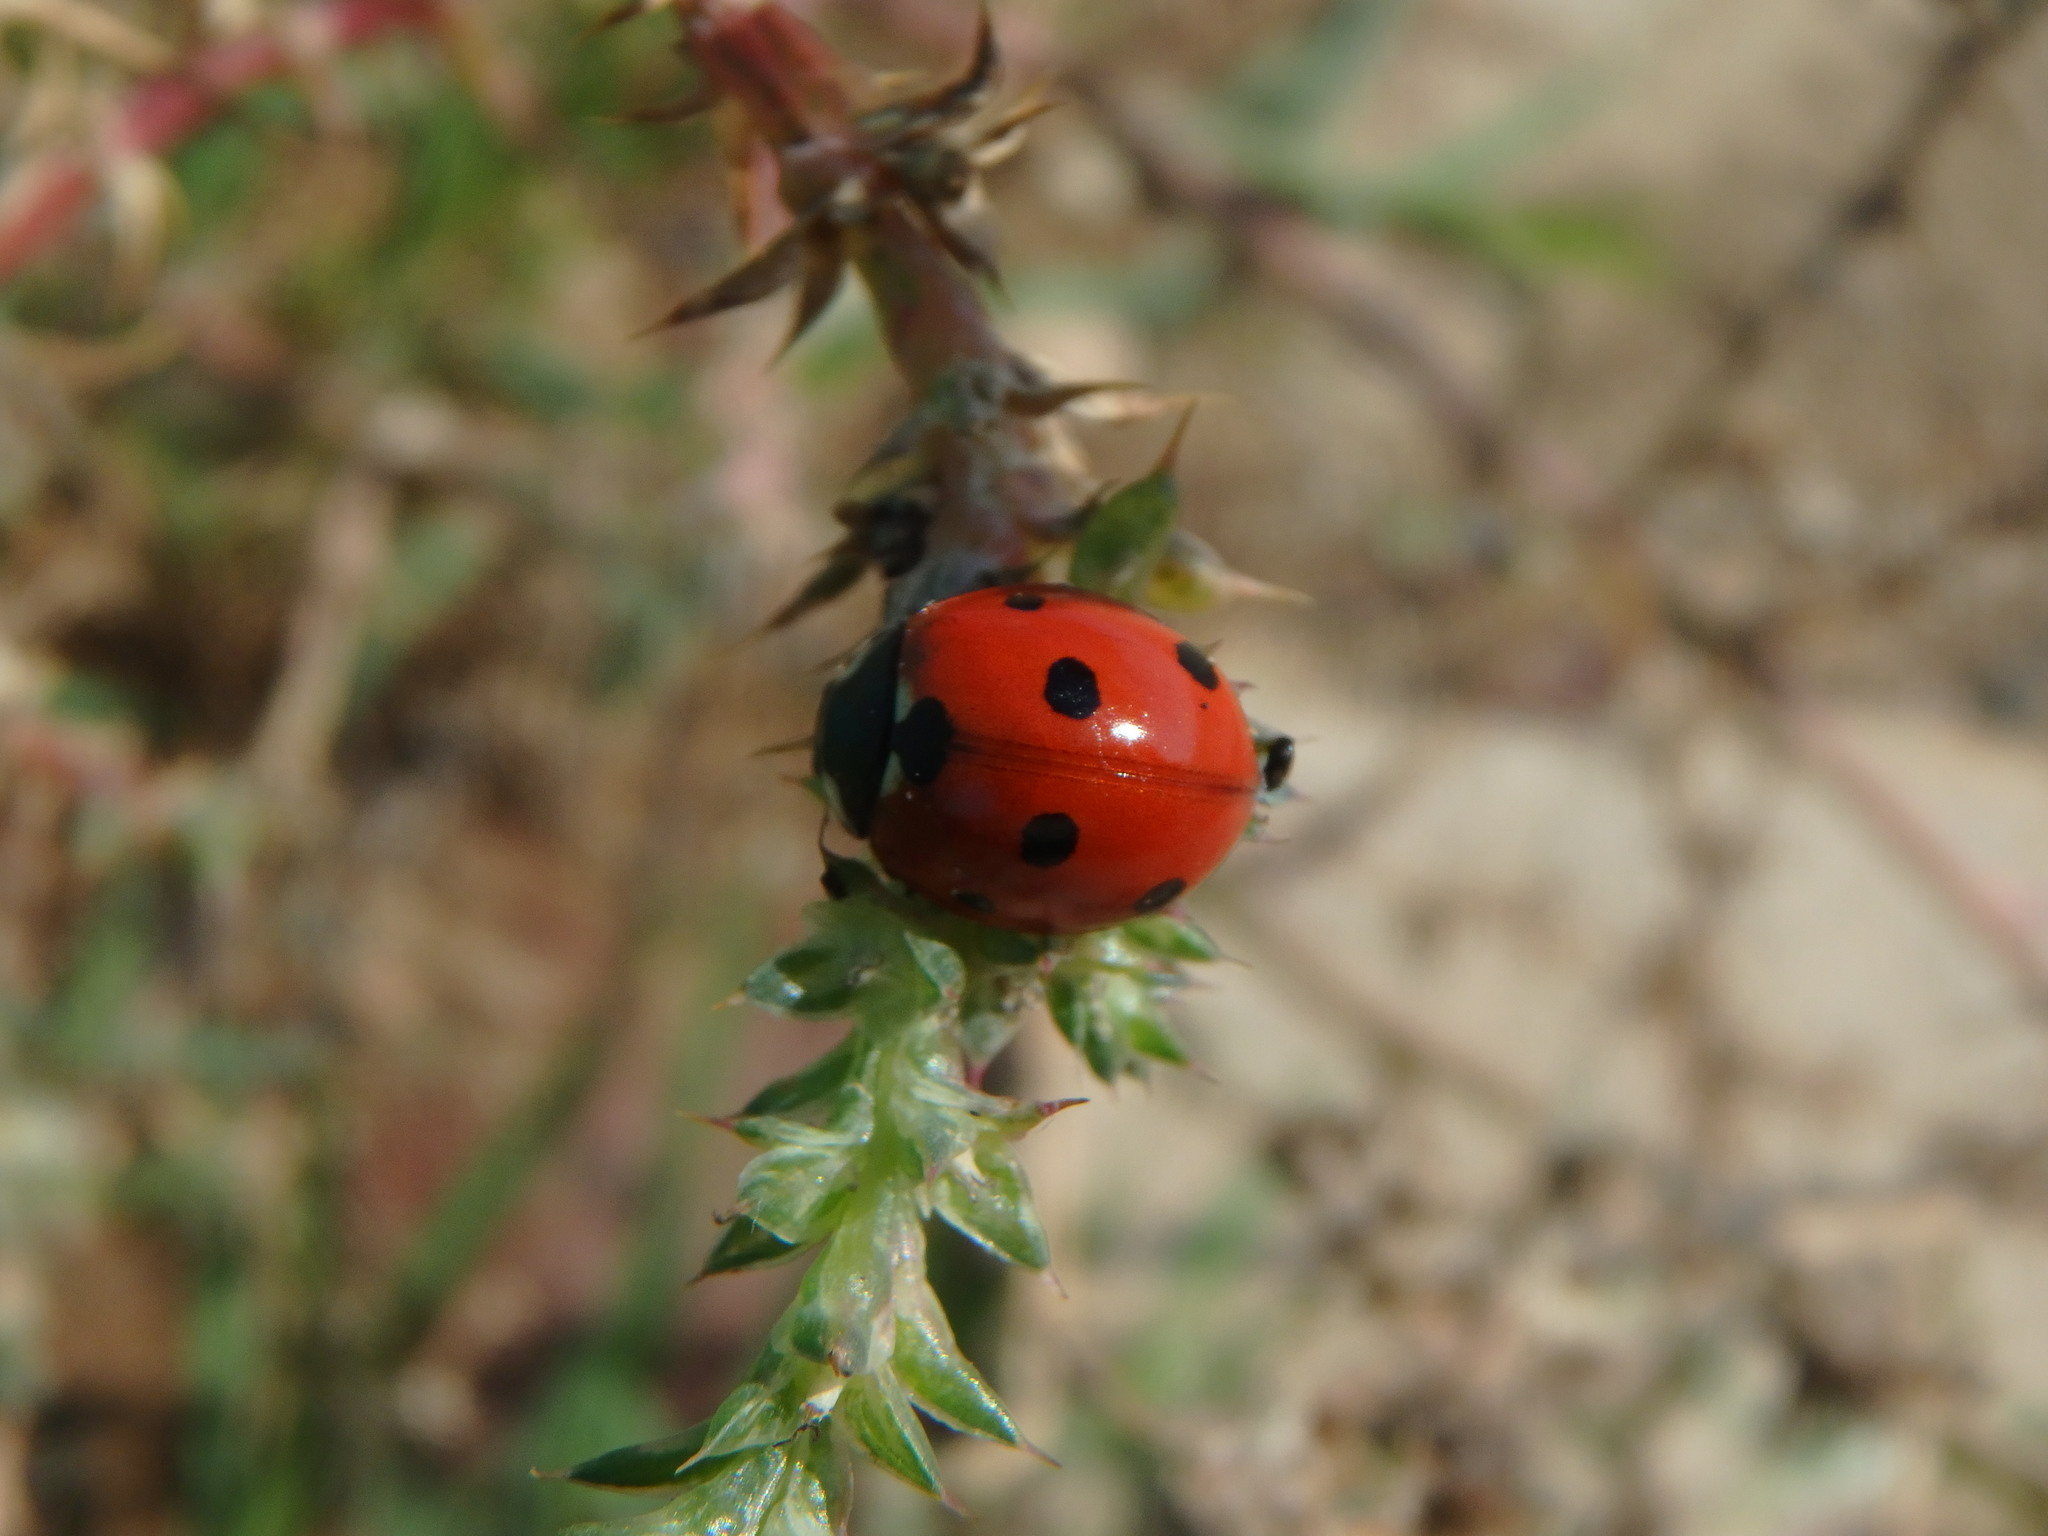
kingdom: Animalia
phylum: Arthropoda
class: Insecta
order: Coleoptera
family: Coccinellidae
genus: Coccinella
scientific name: Coccinella septempunctata
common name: Sevenspotted lady beetle
